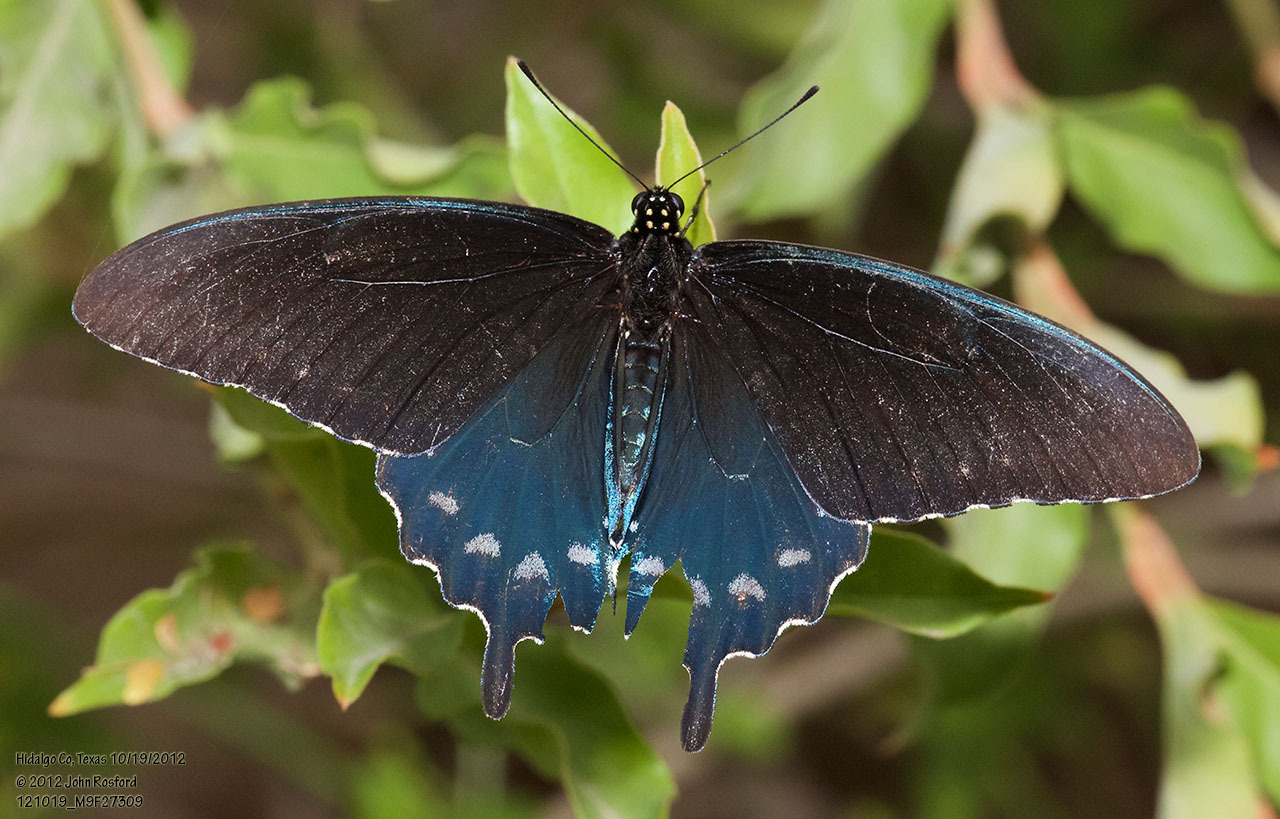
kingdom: Animalia
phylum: Arthropoda
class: Insecta
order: Lepidoptera
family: Papilionidae
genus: Battus
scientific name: Battus philenor
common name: Pipevine swallowtail
